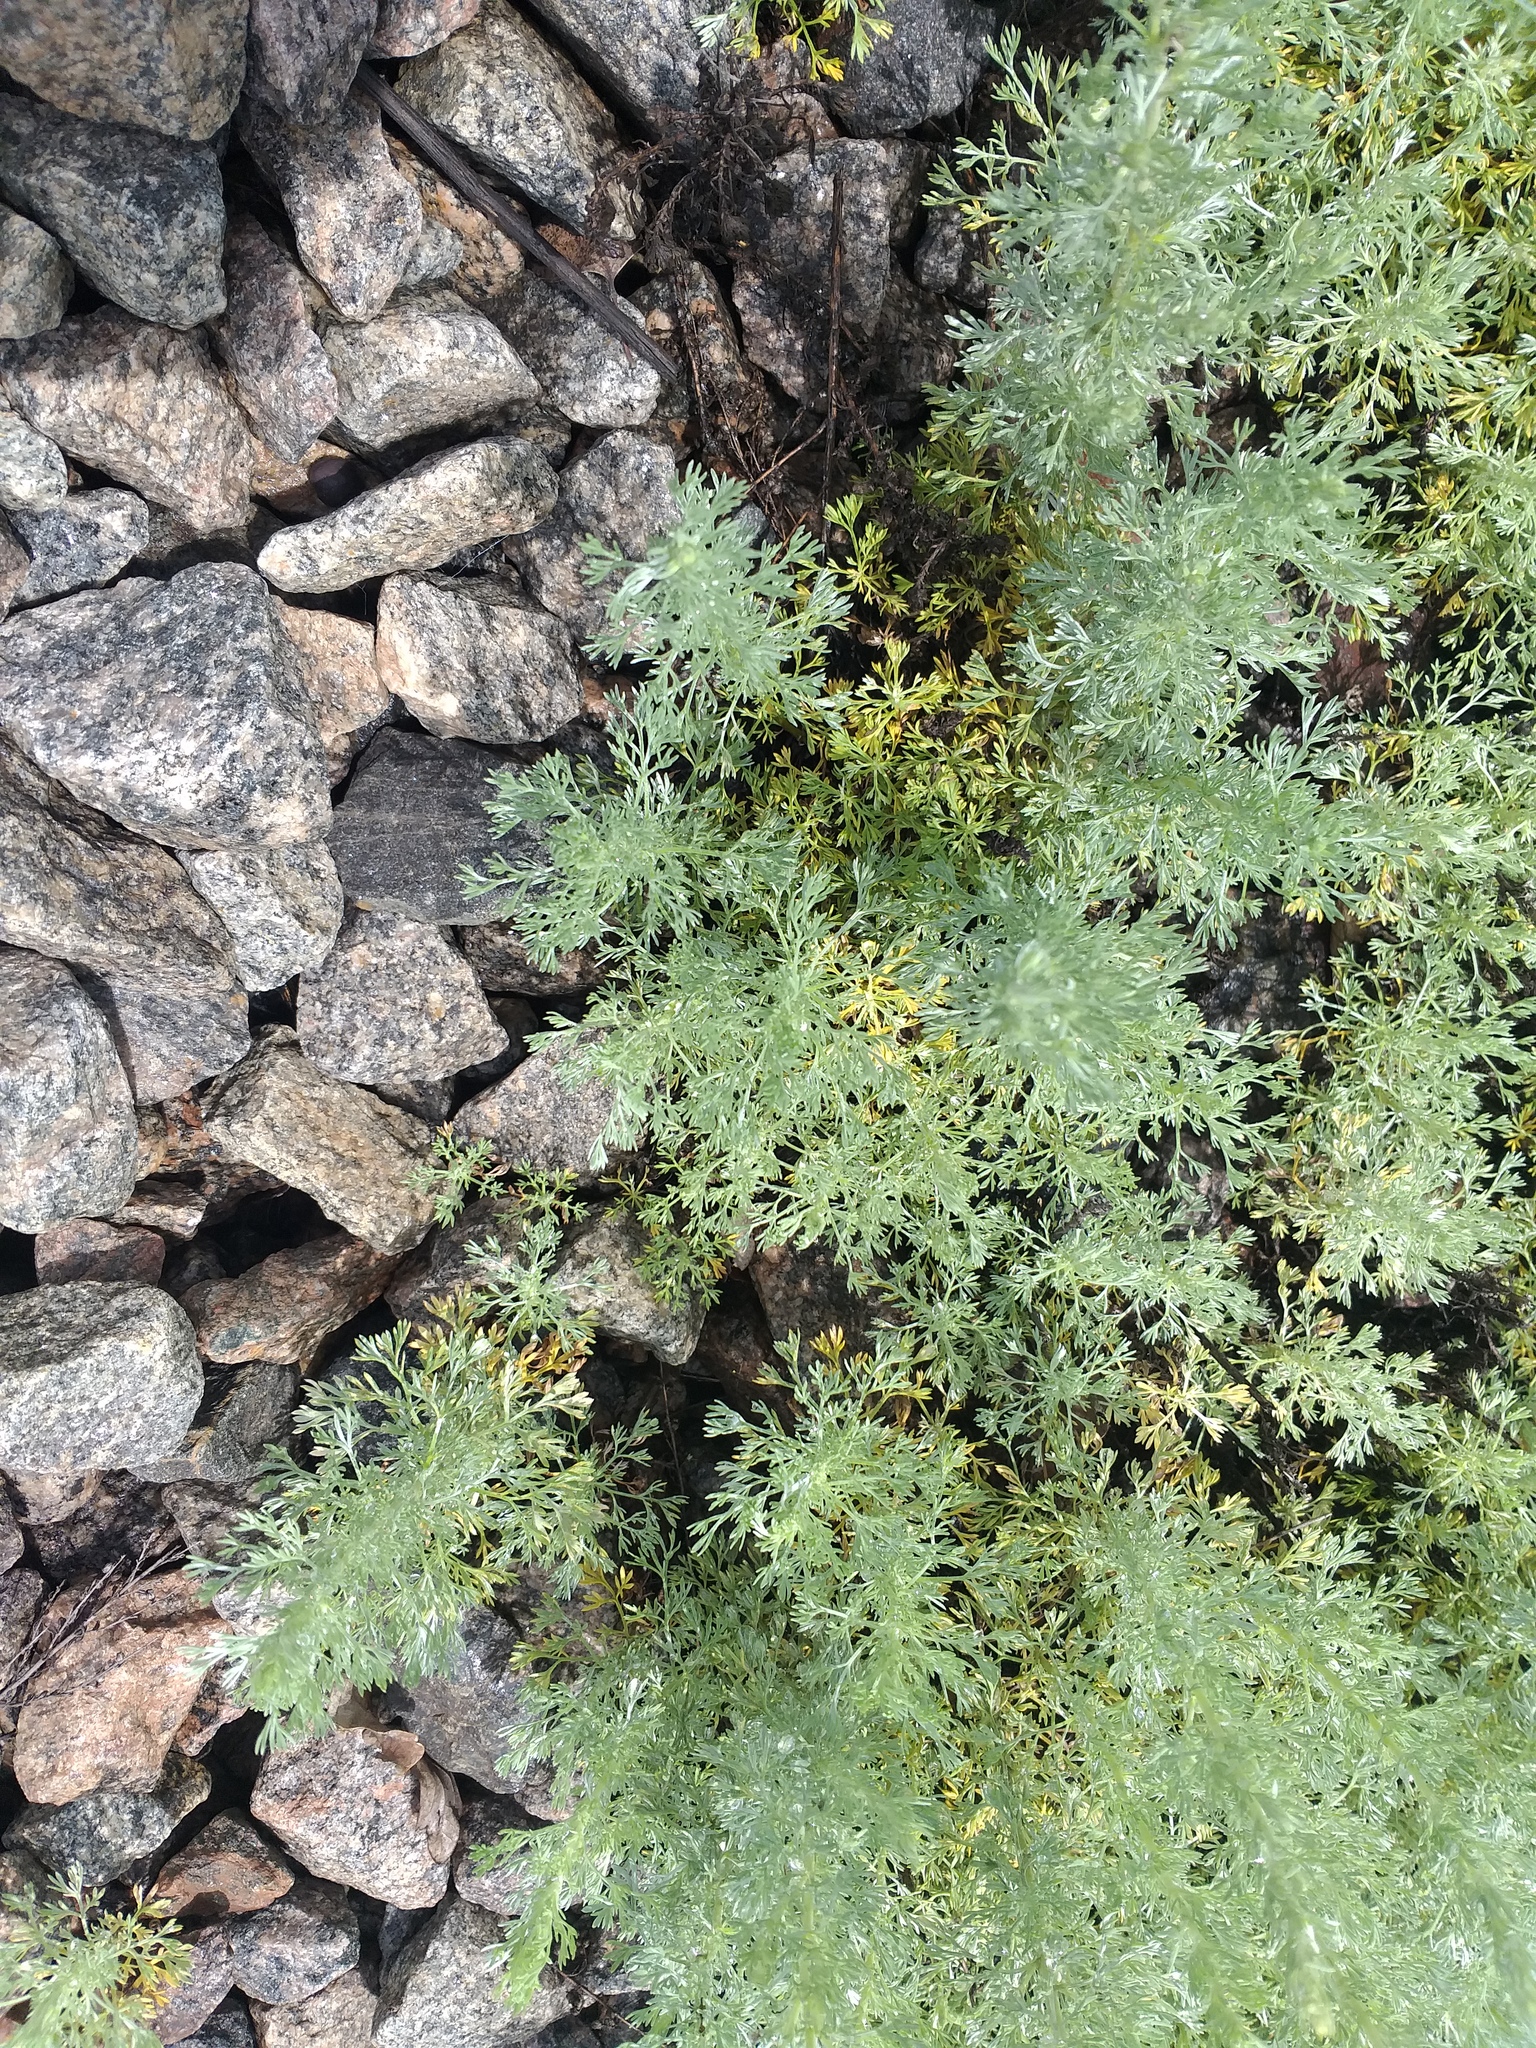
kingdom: Plantae
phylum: Tracheophyta
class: Magnoliopsida
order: Asterales
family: Asteraceae
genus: Artemisia
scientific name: Artemisia austriaca
